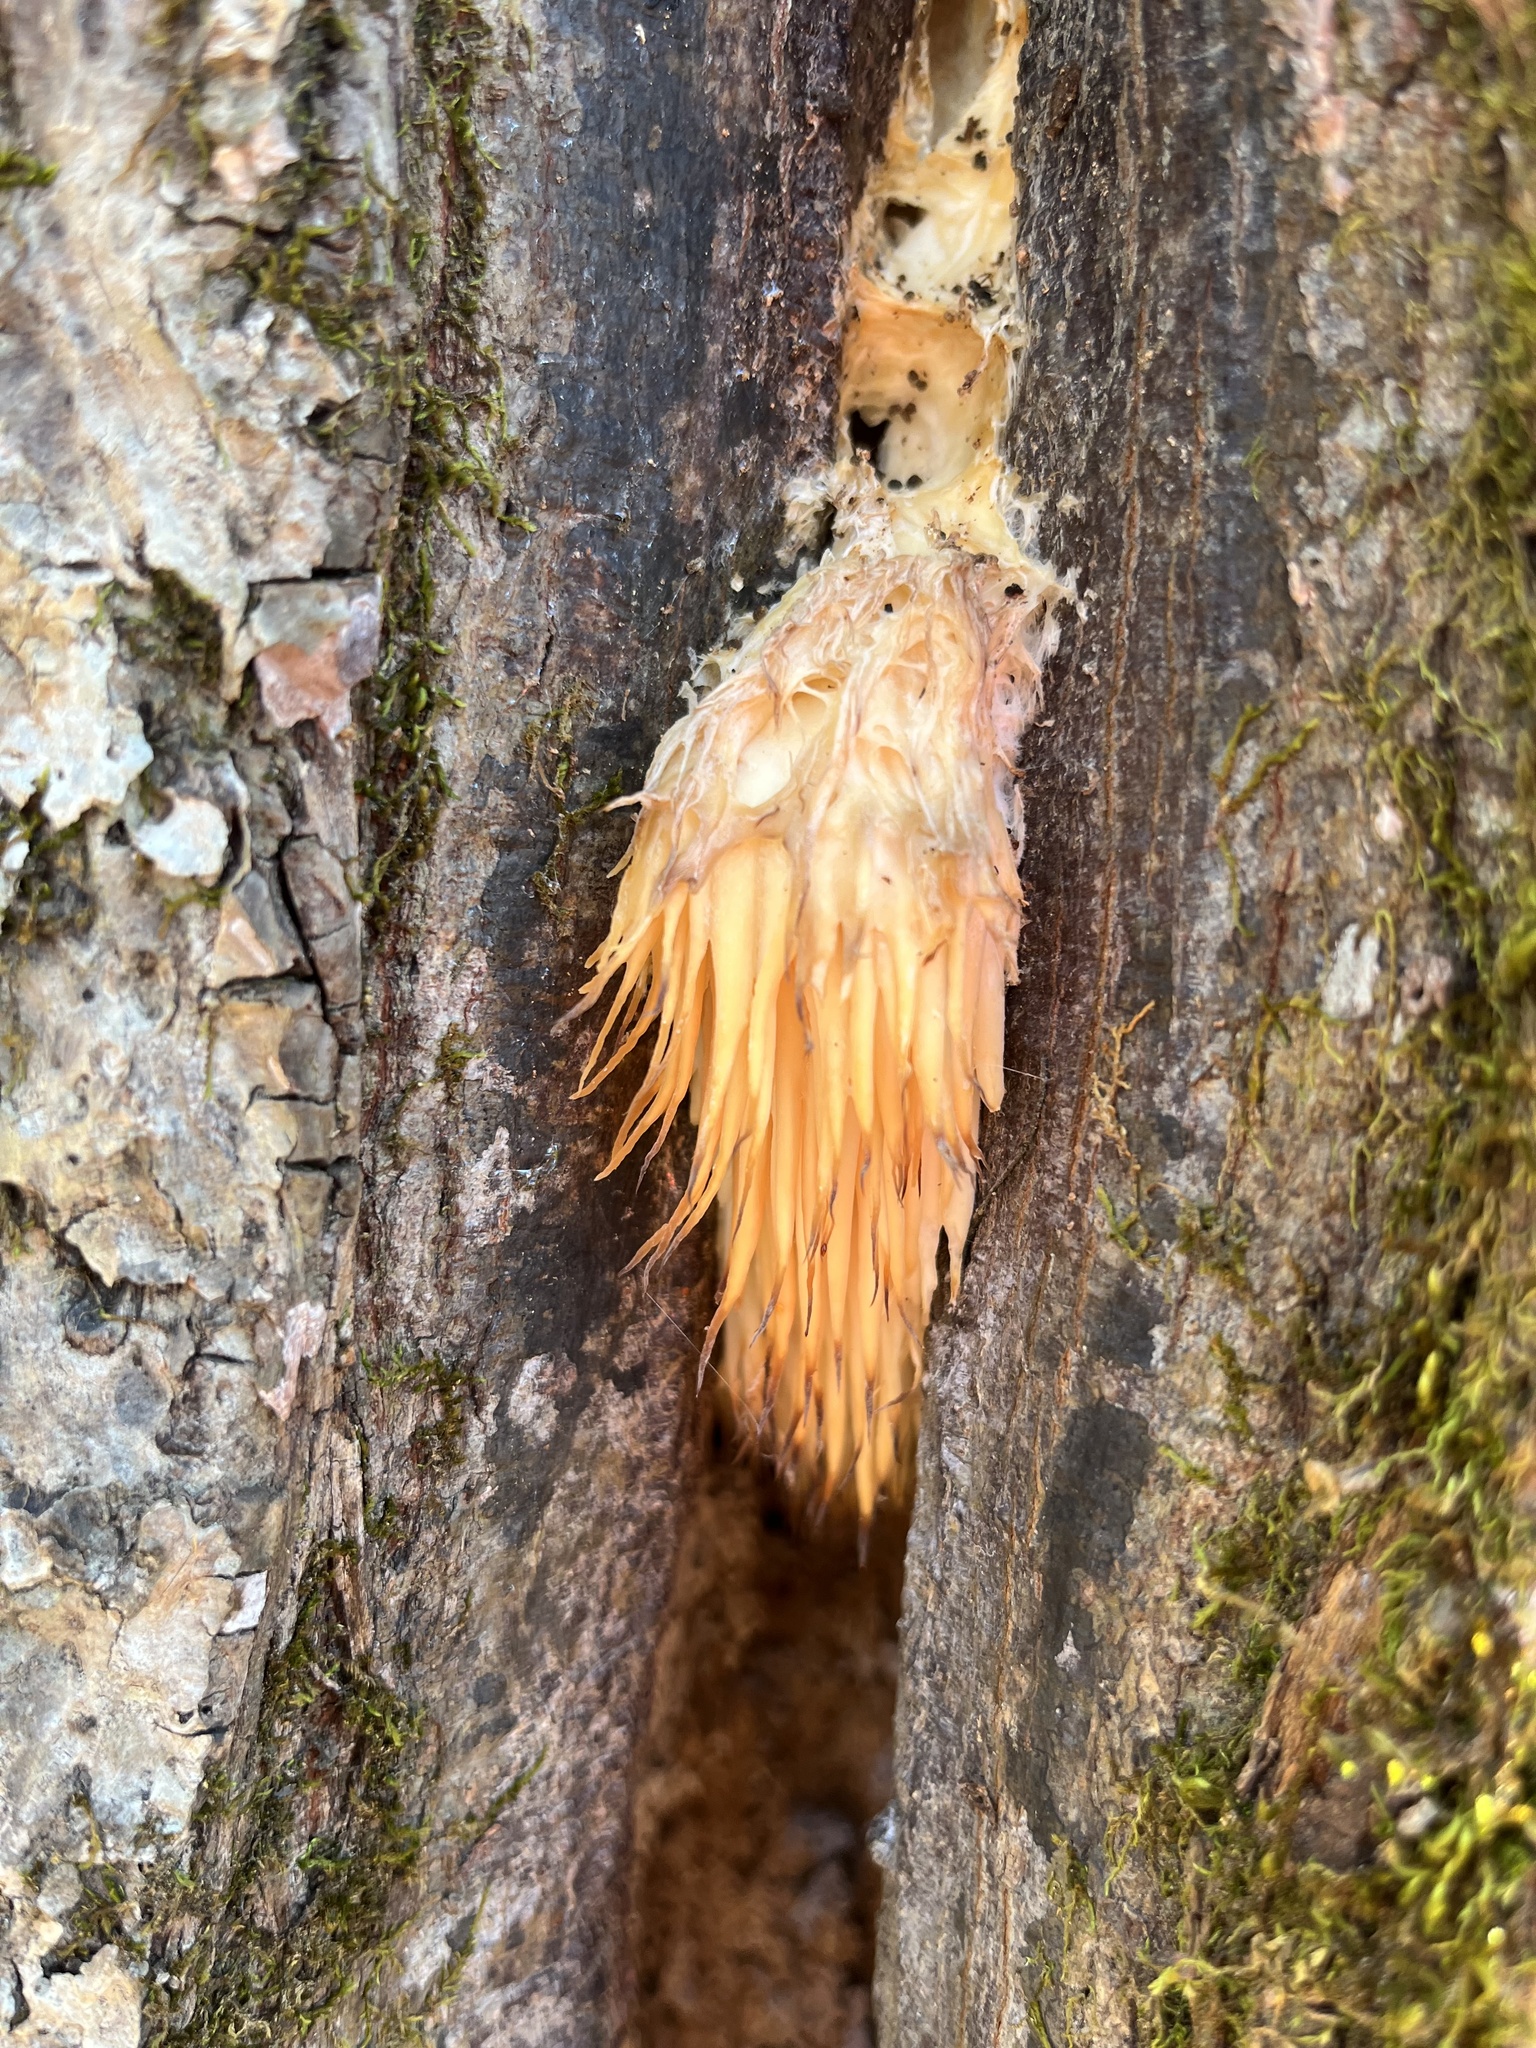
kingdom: Fungi
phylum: Basidiomycota
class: Agaricomycetes
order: Russulales
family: Hericiaceae
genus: Hericium
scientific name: Hericium erinaceus
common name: Bearded tooth
